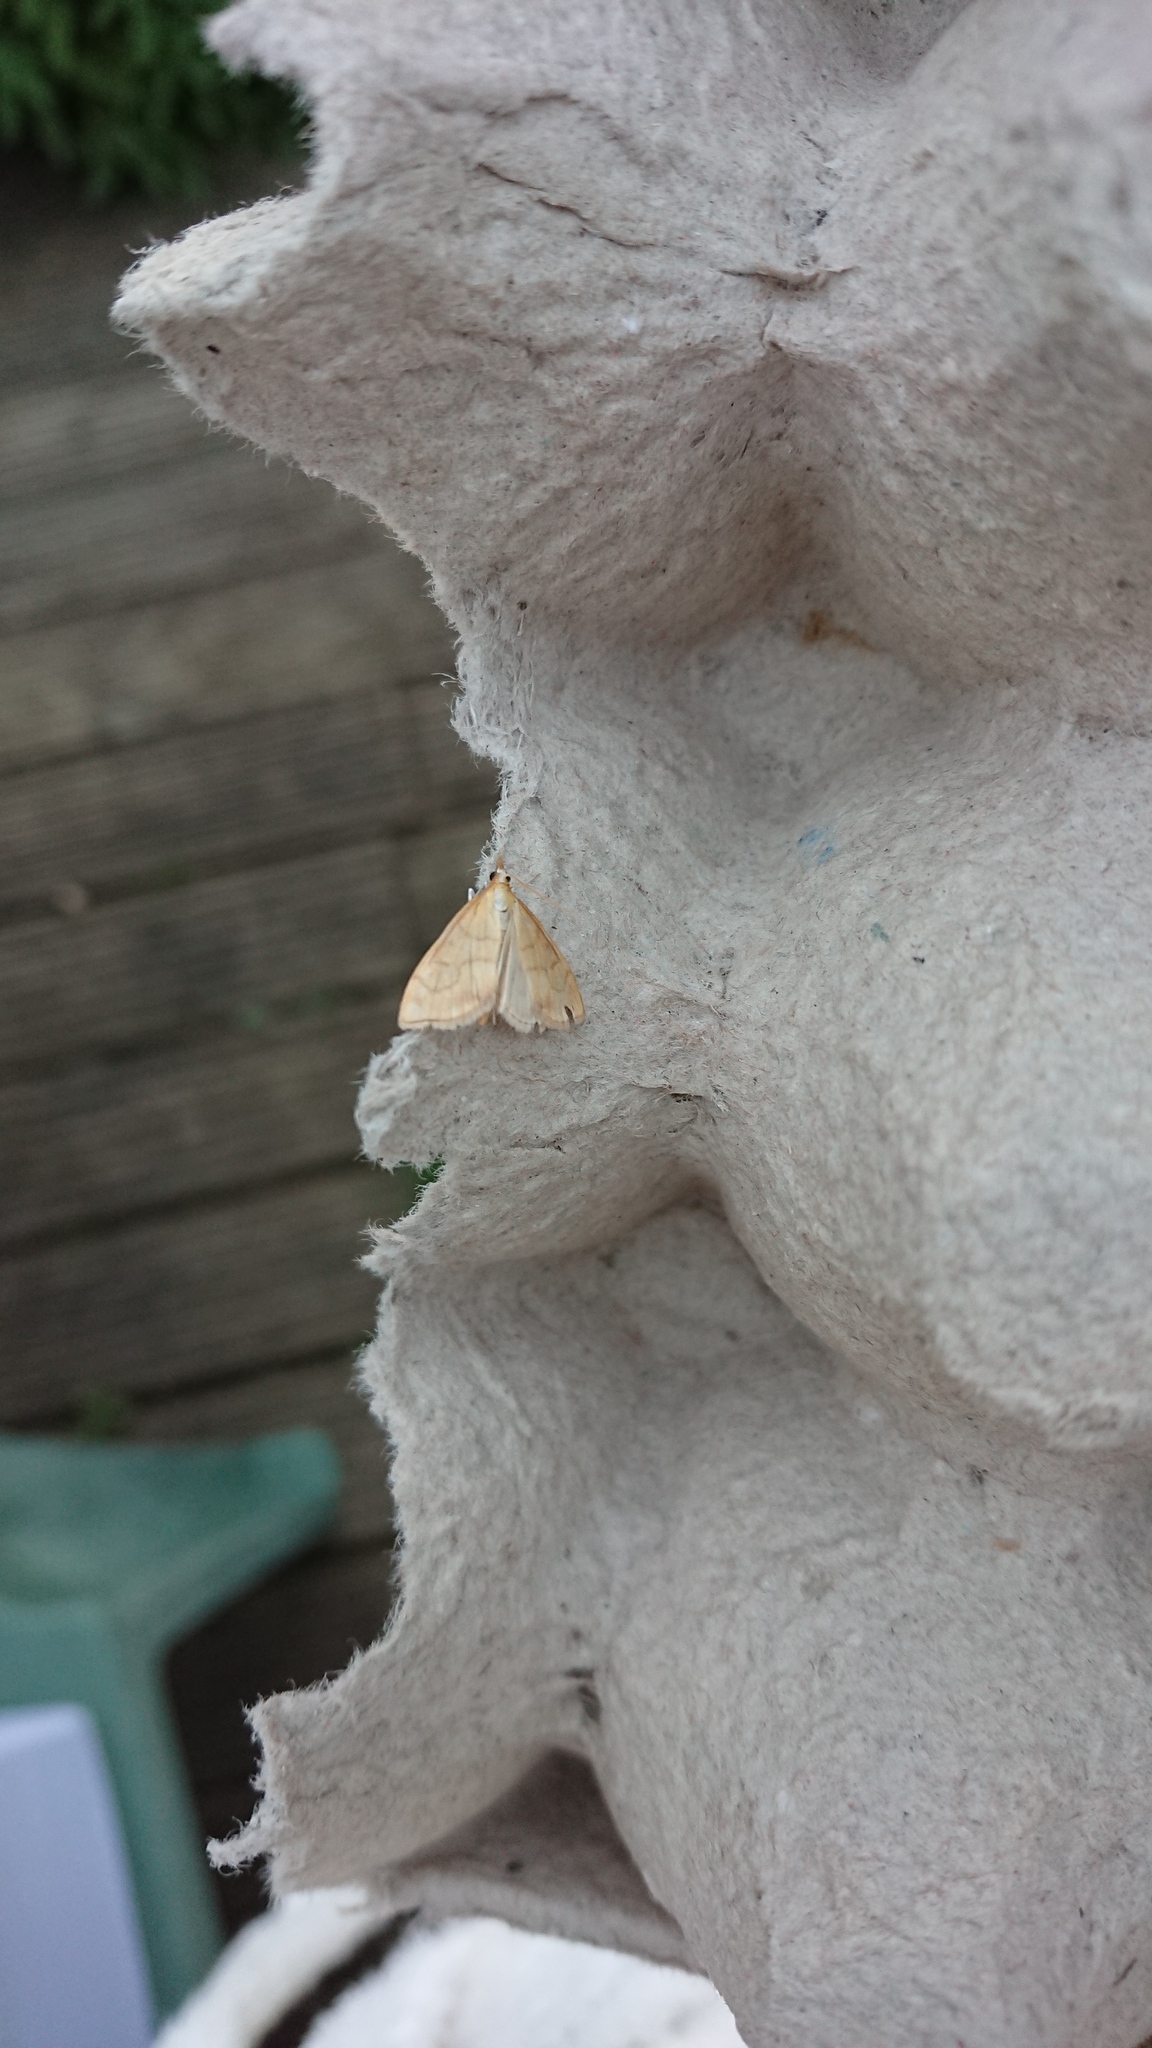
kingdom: Animalia
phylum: Arthropoda
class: Insecta
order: Lepidoptera
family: Crambidae
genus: Anania
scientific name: Anania crocealis
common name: Ochreous pearl
